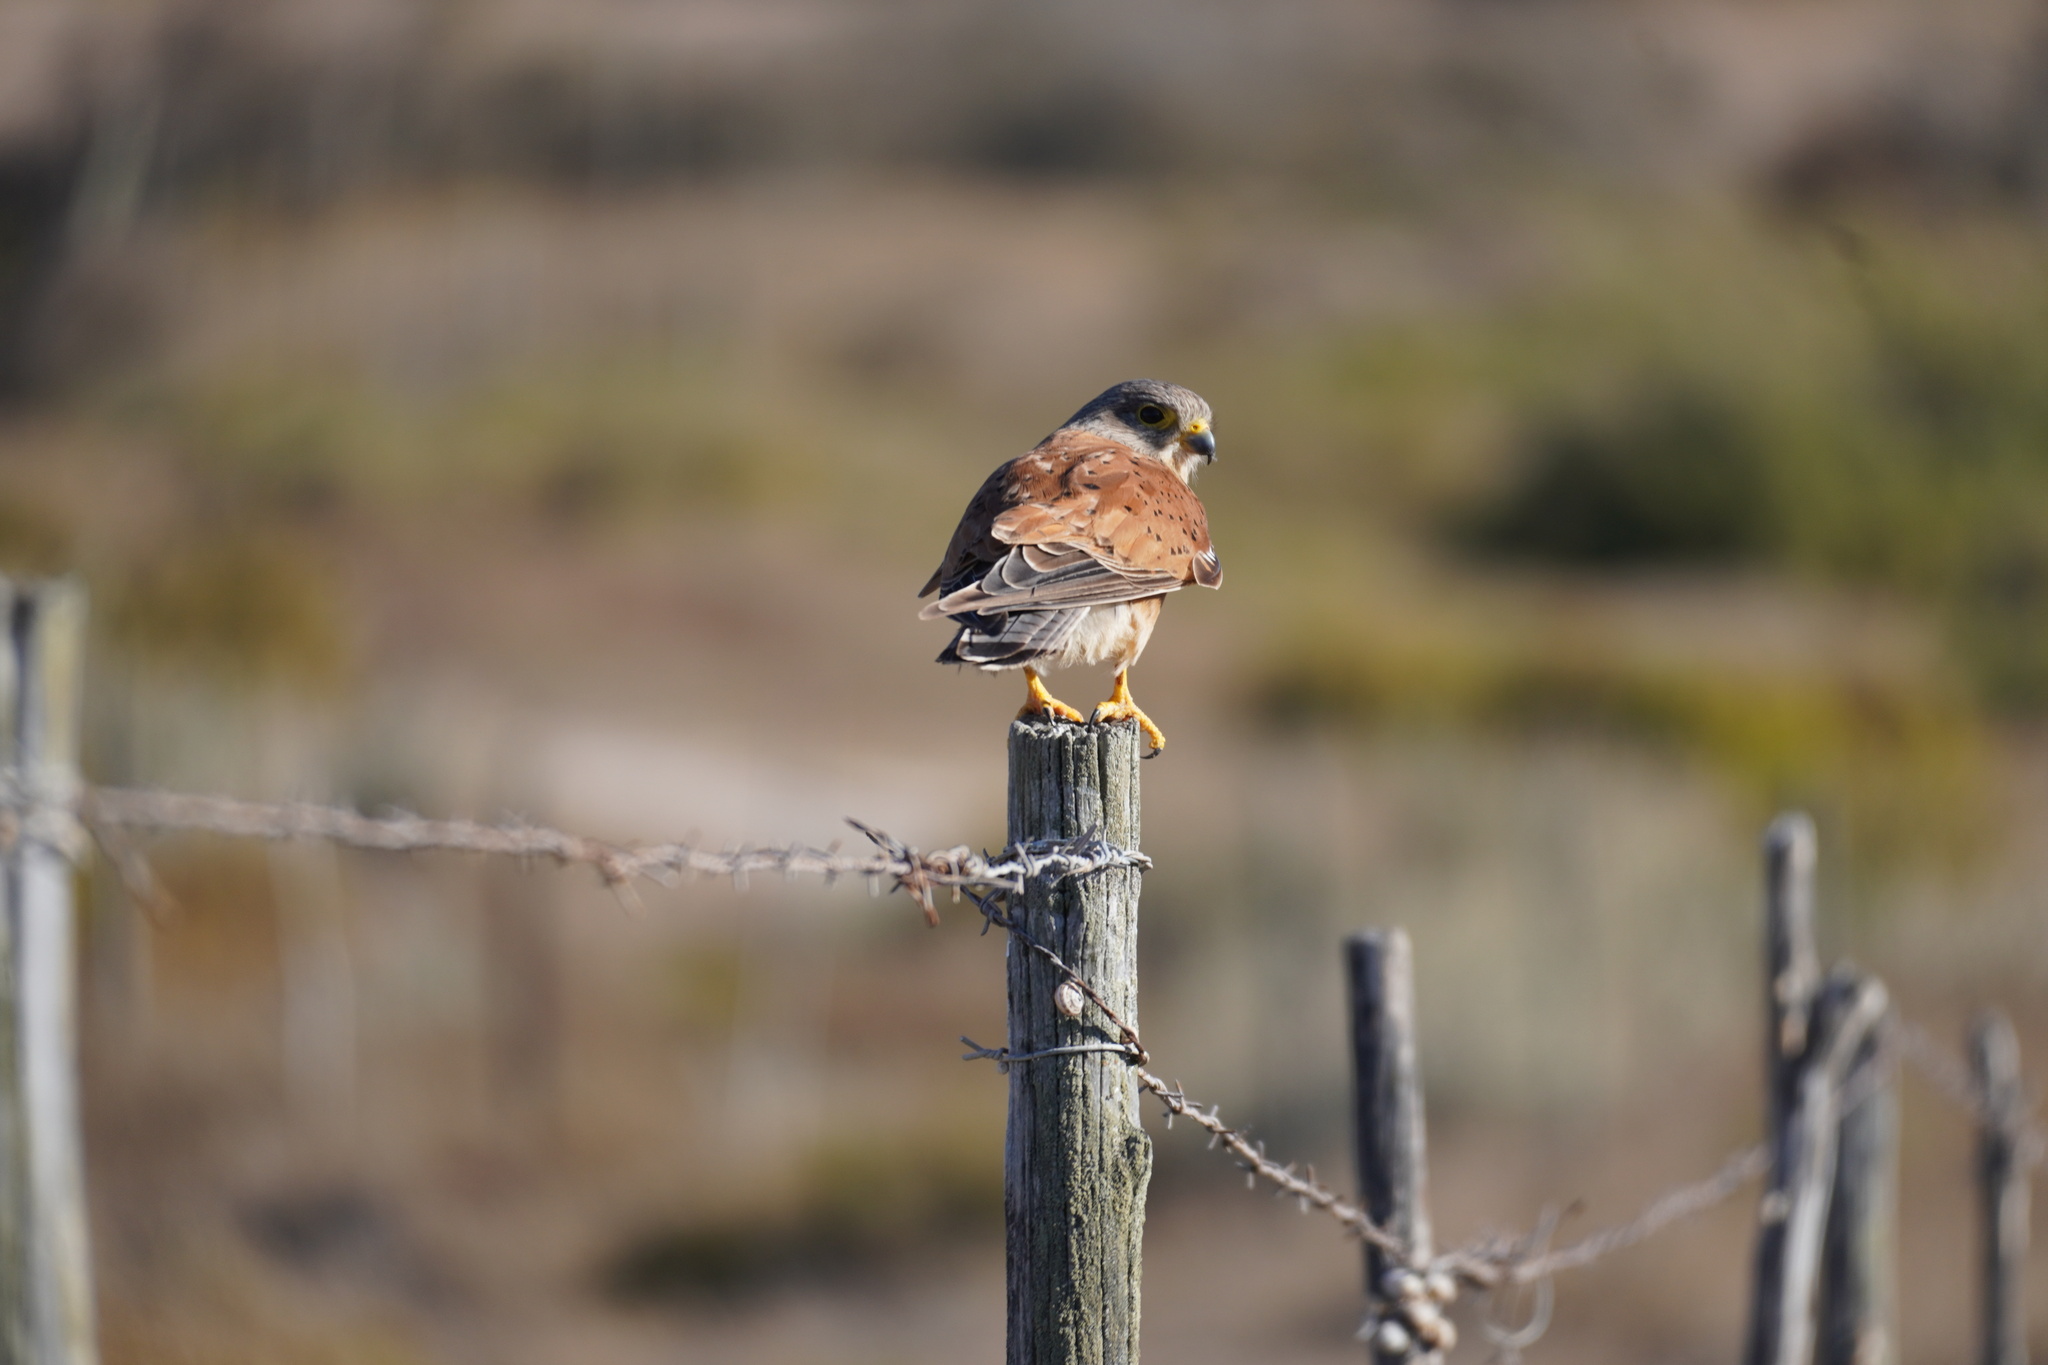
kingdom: Animalia
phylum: Chordata
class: Aves
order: Falconiformes
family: Falconidae
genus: Falco
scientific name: Falco rupicolus
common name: Rock kestrel
